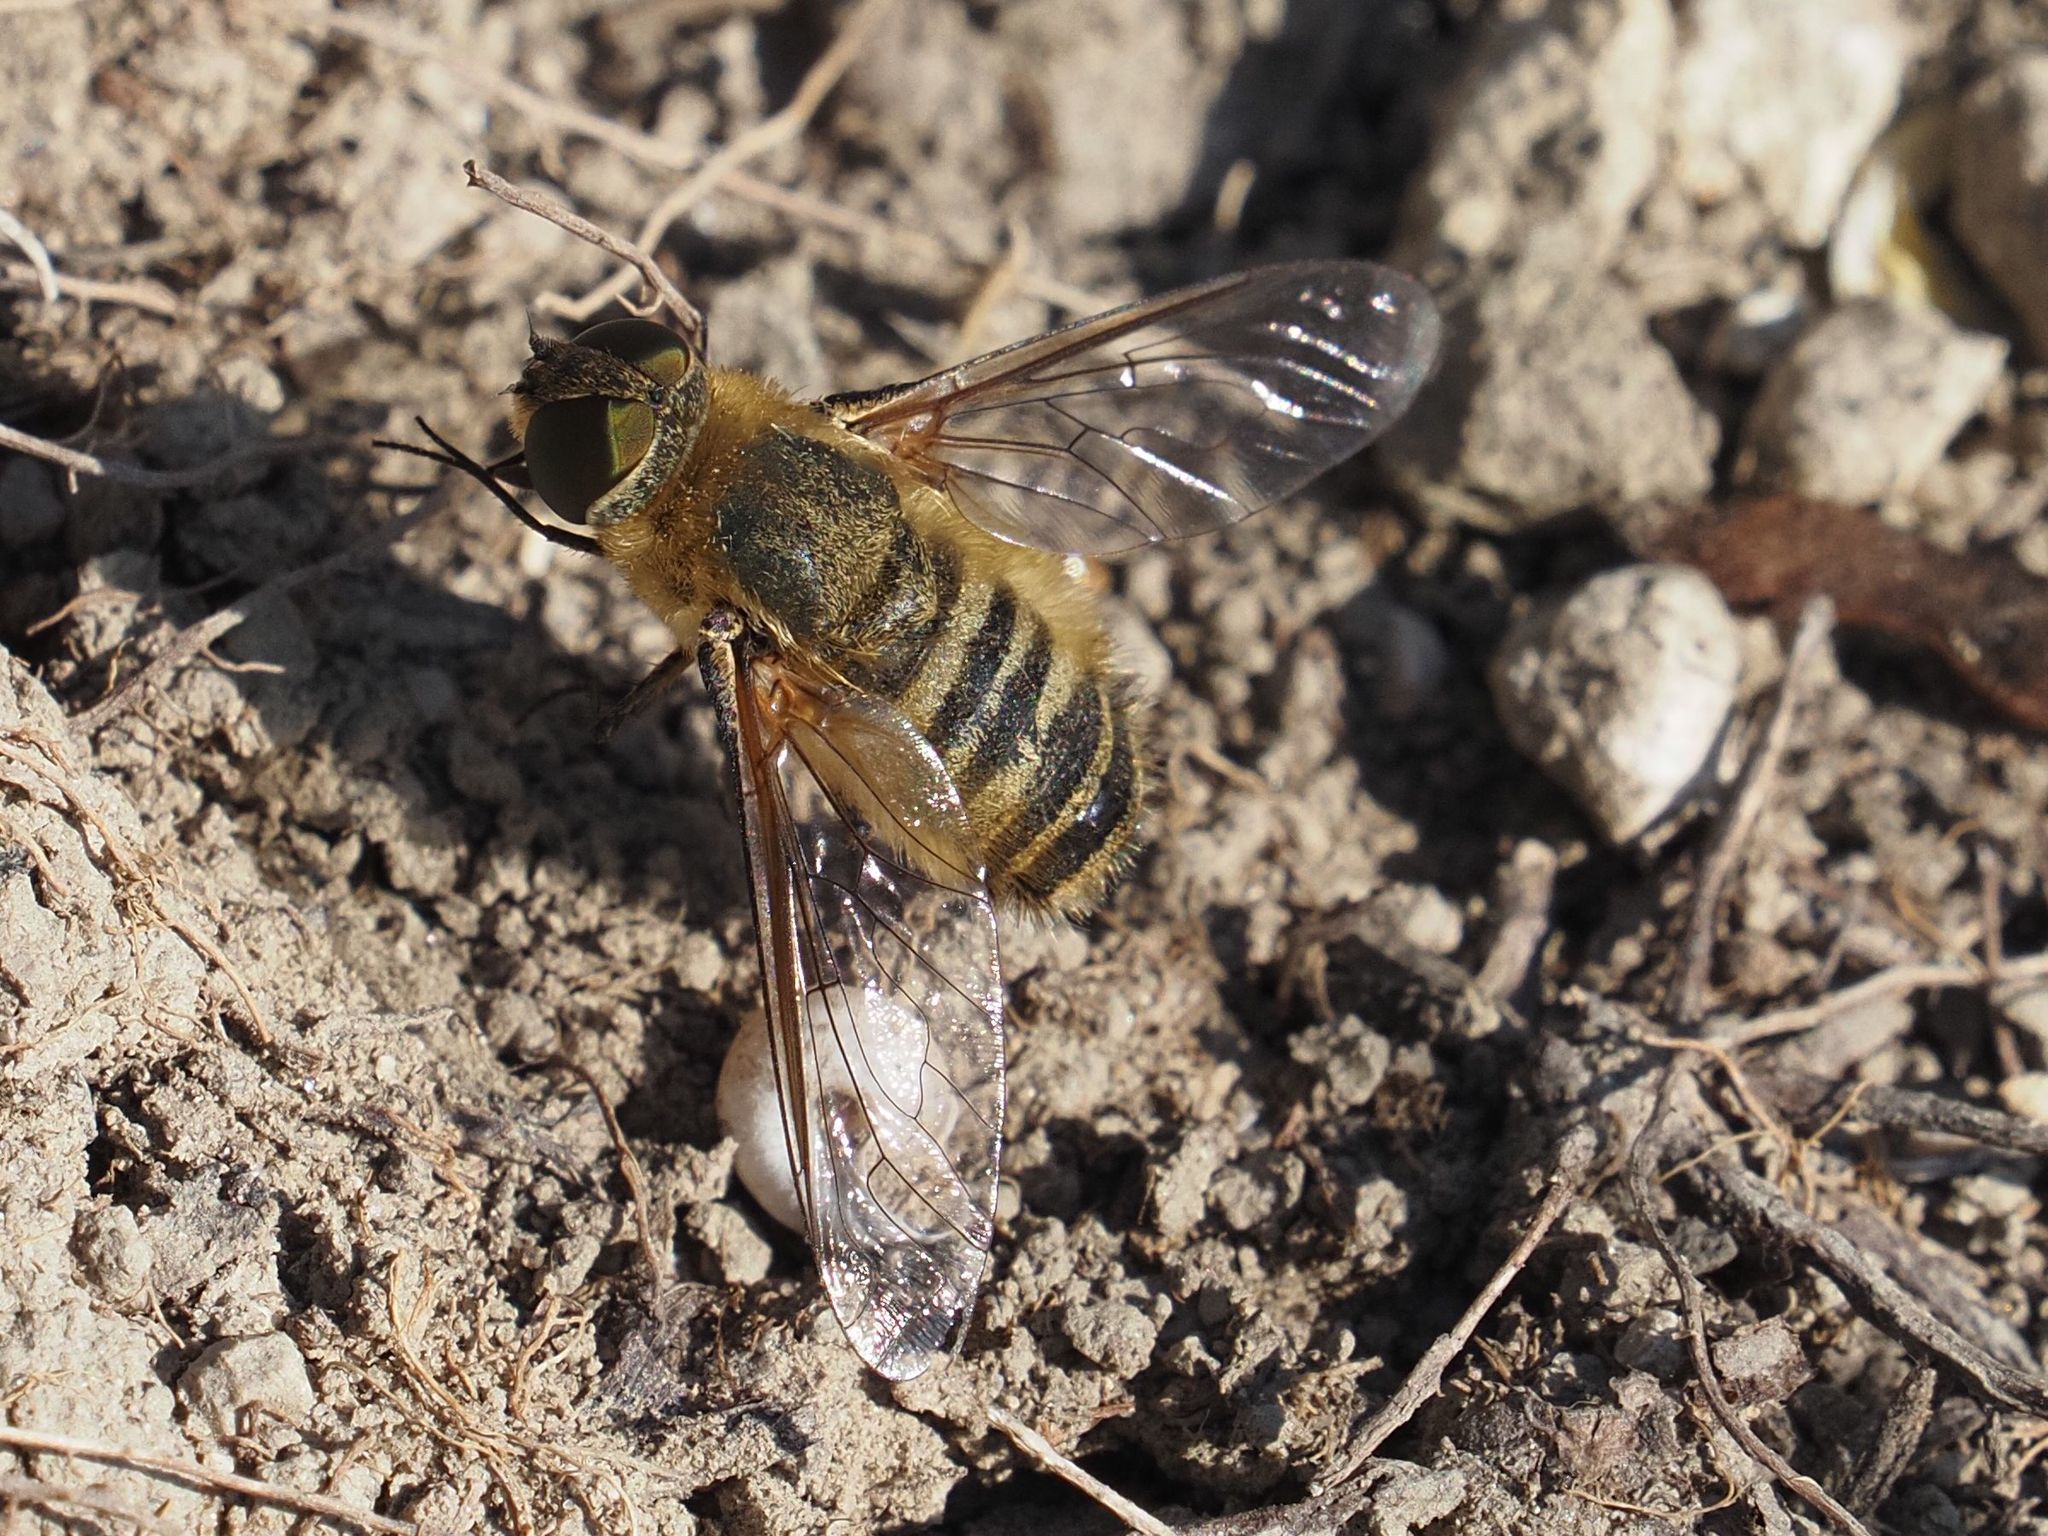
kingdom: Animalia
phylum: Arthropoda
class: Insecta
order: Diptera
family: Bombyliidae
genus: Villa
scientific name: Villa hottentotta
